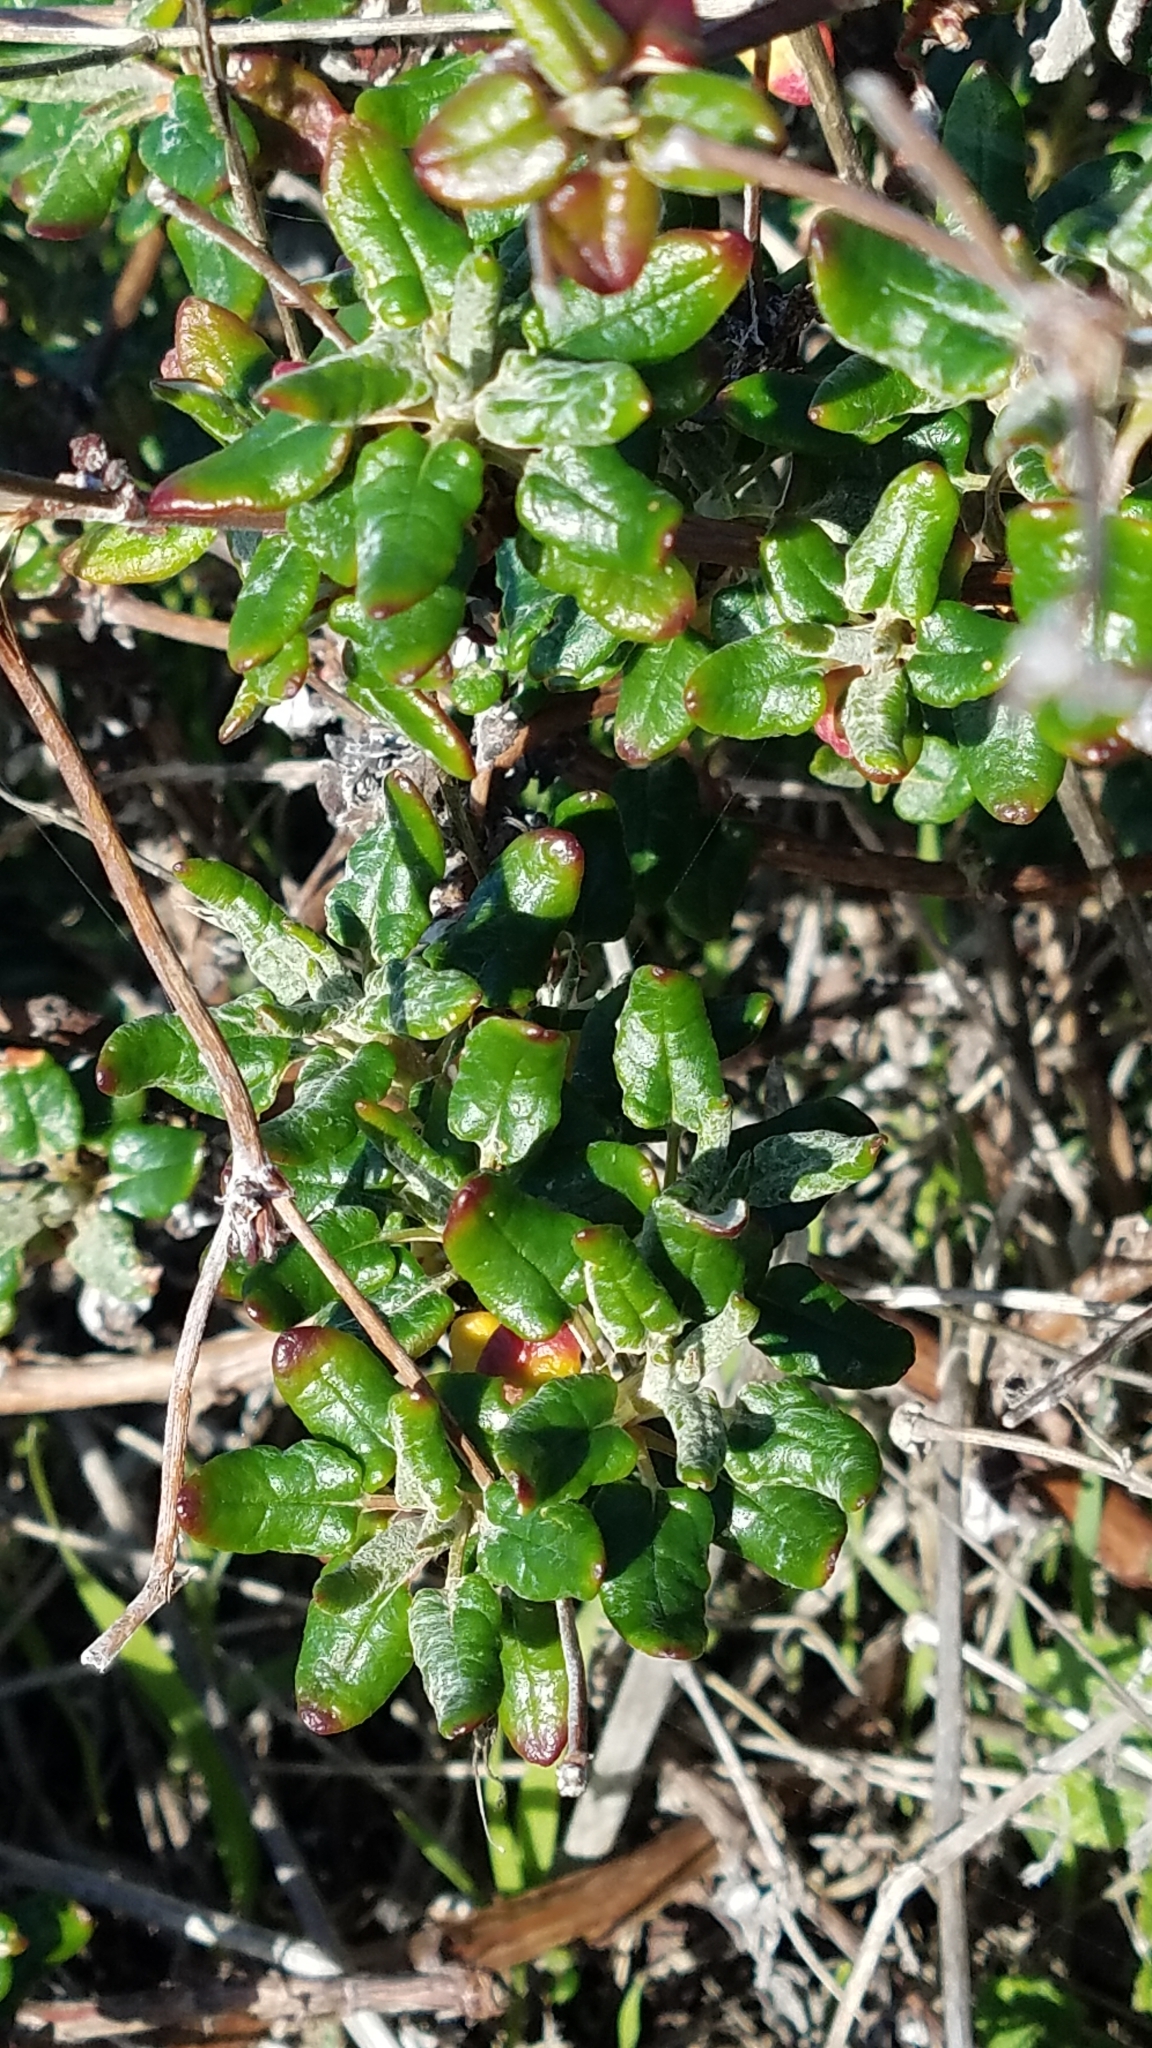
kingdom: Plantae
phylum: Tracheophyta
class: Magnoliopsida
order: Caryophyllales
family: Polygonaceae
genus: Eriogonum
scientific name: Eriogonum parvifolium
